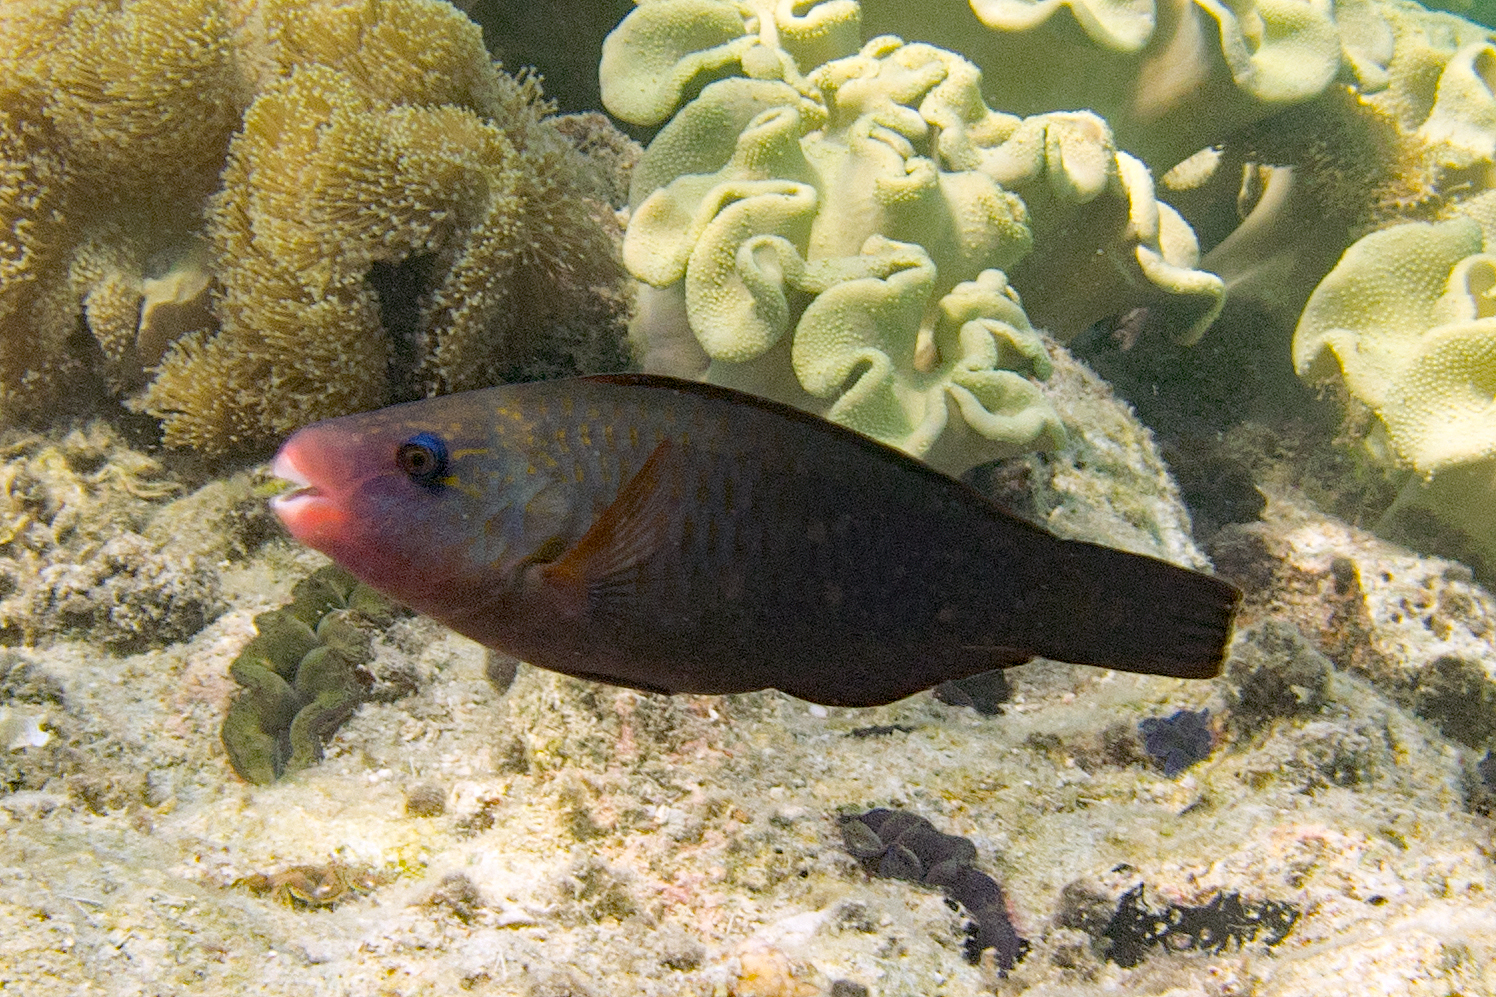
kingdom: Animalia
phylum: Chordata
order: Perciformes
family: Scaridae
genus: Chlorurus
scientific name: Chlorurus spilurus
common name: Bullethead parrotfish
